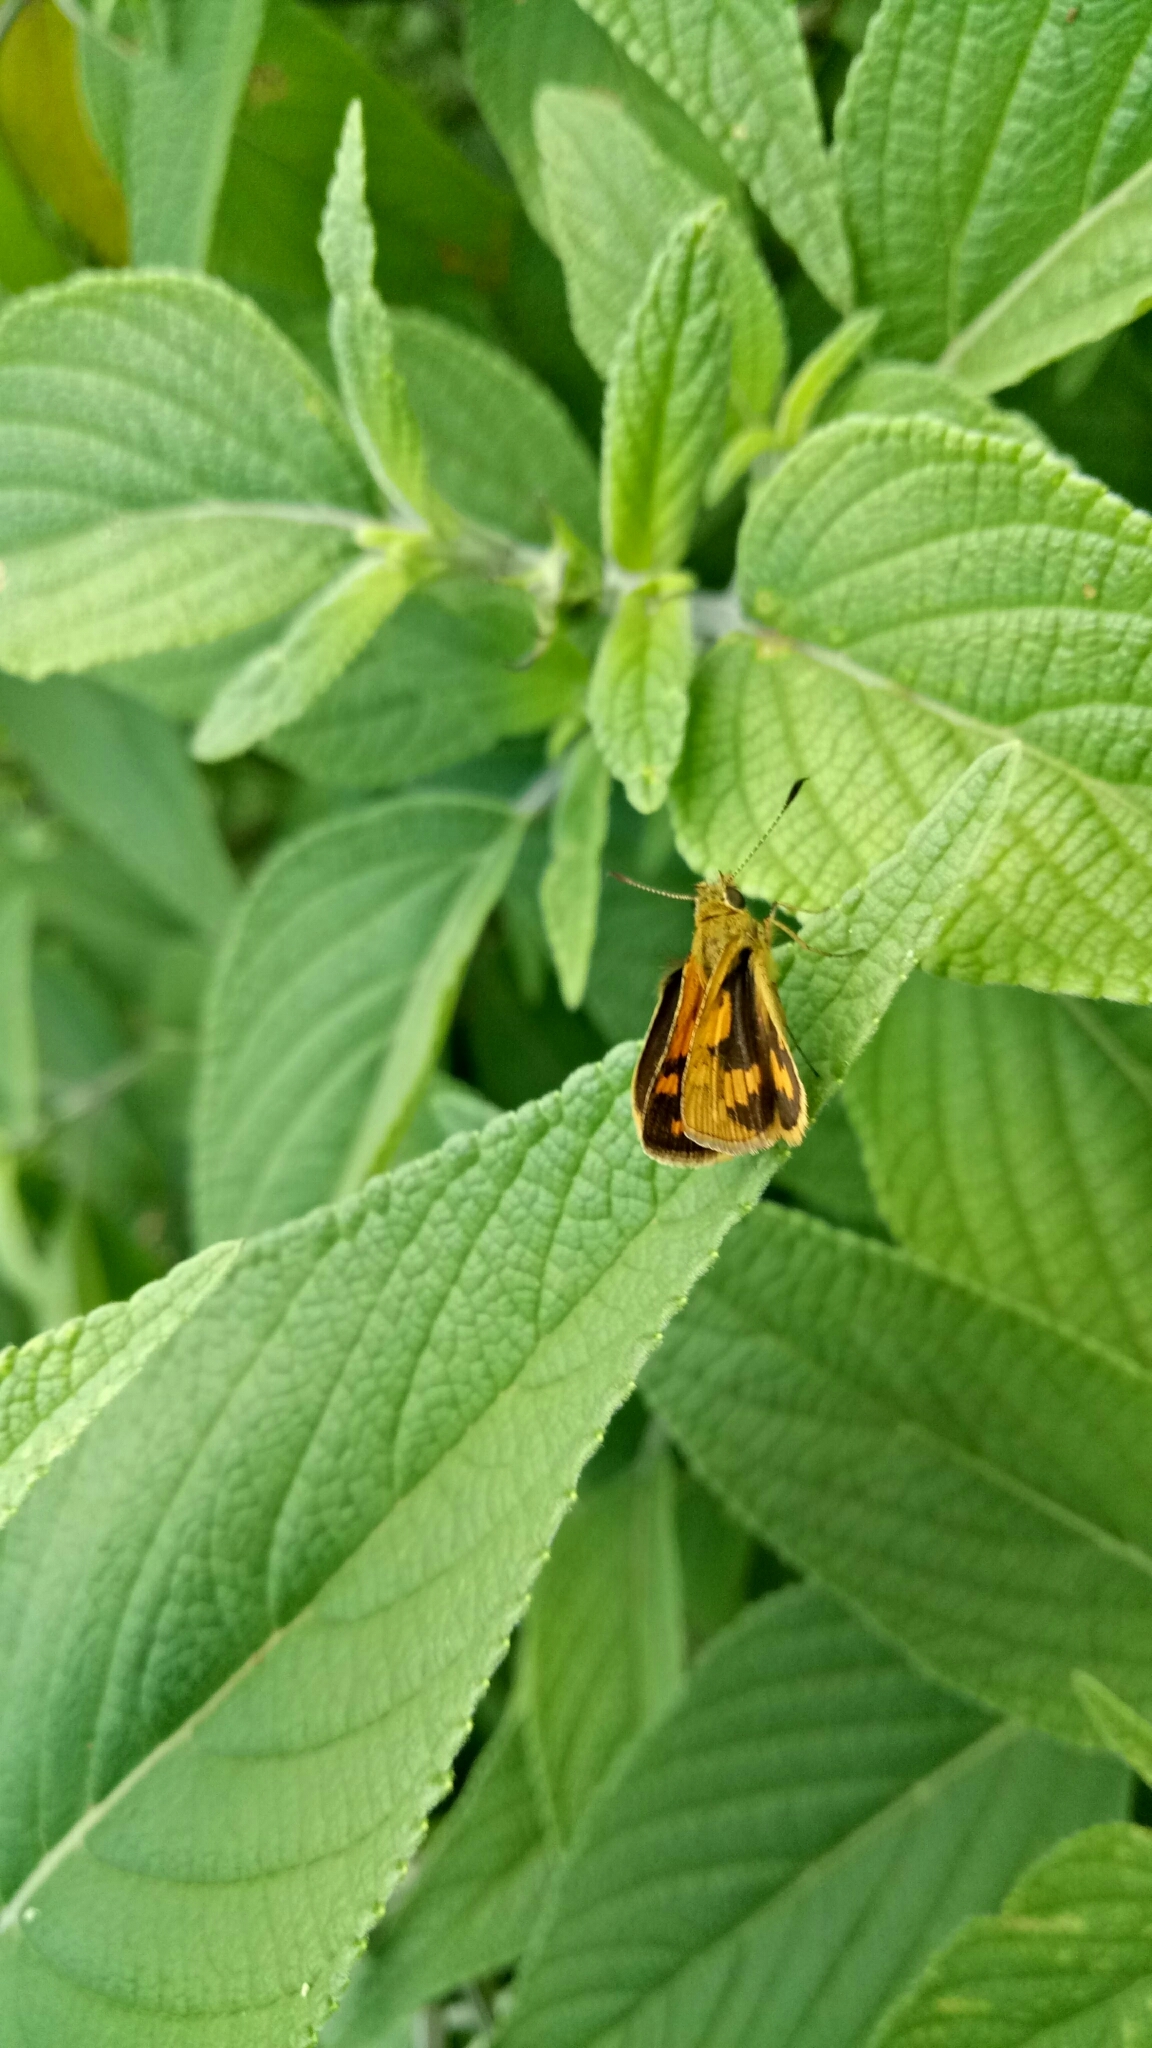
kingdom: Animalia
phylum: Arthropoda
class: Insecta
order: Lepidoptera
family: Hesperiidae
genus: Ocybadistes
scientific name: Ocybadistes walkeri
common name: Yellow-banded dart
